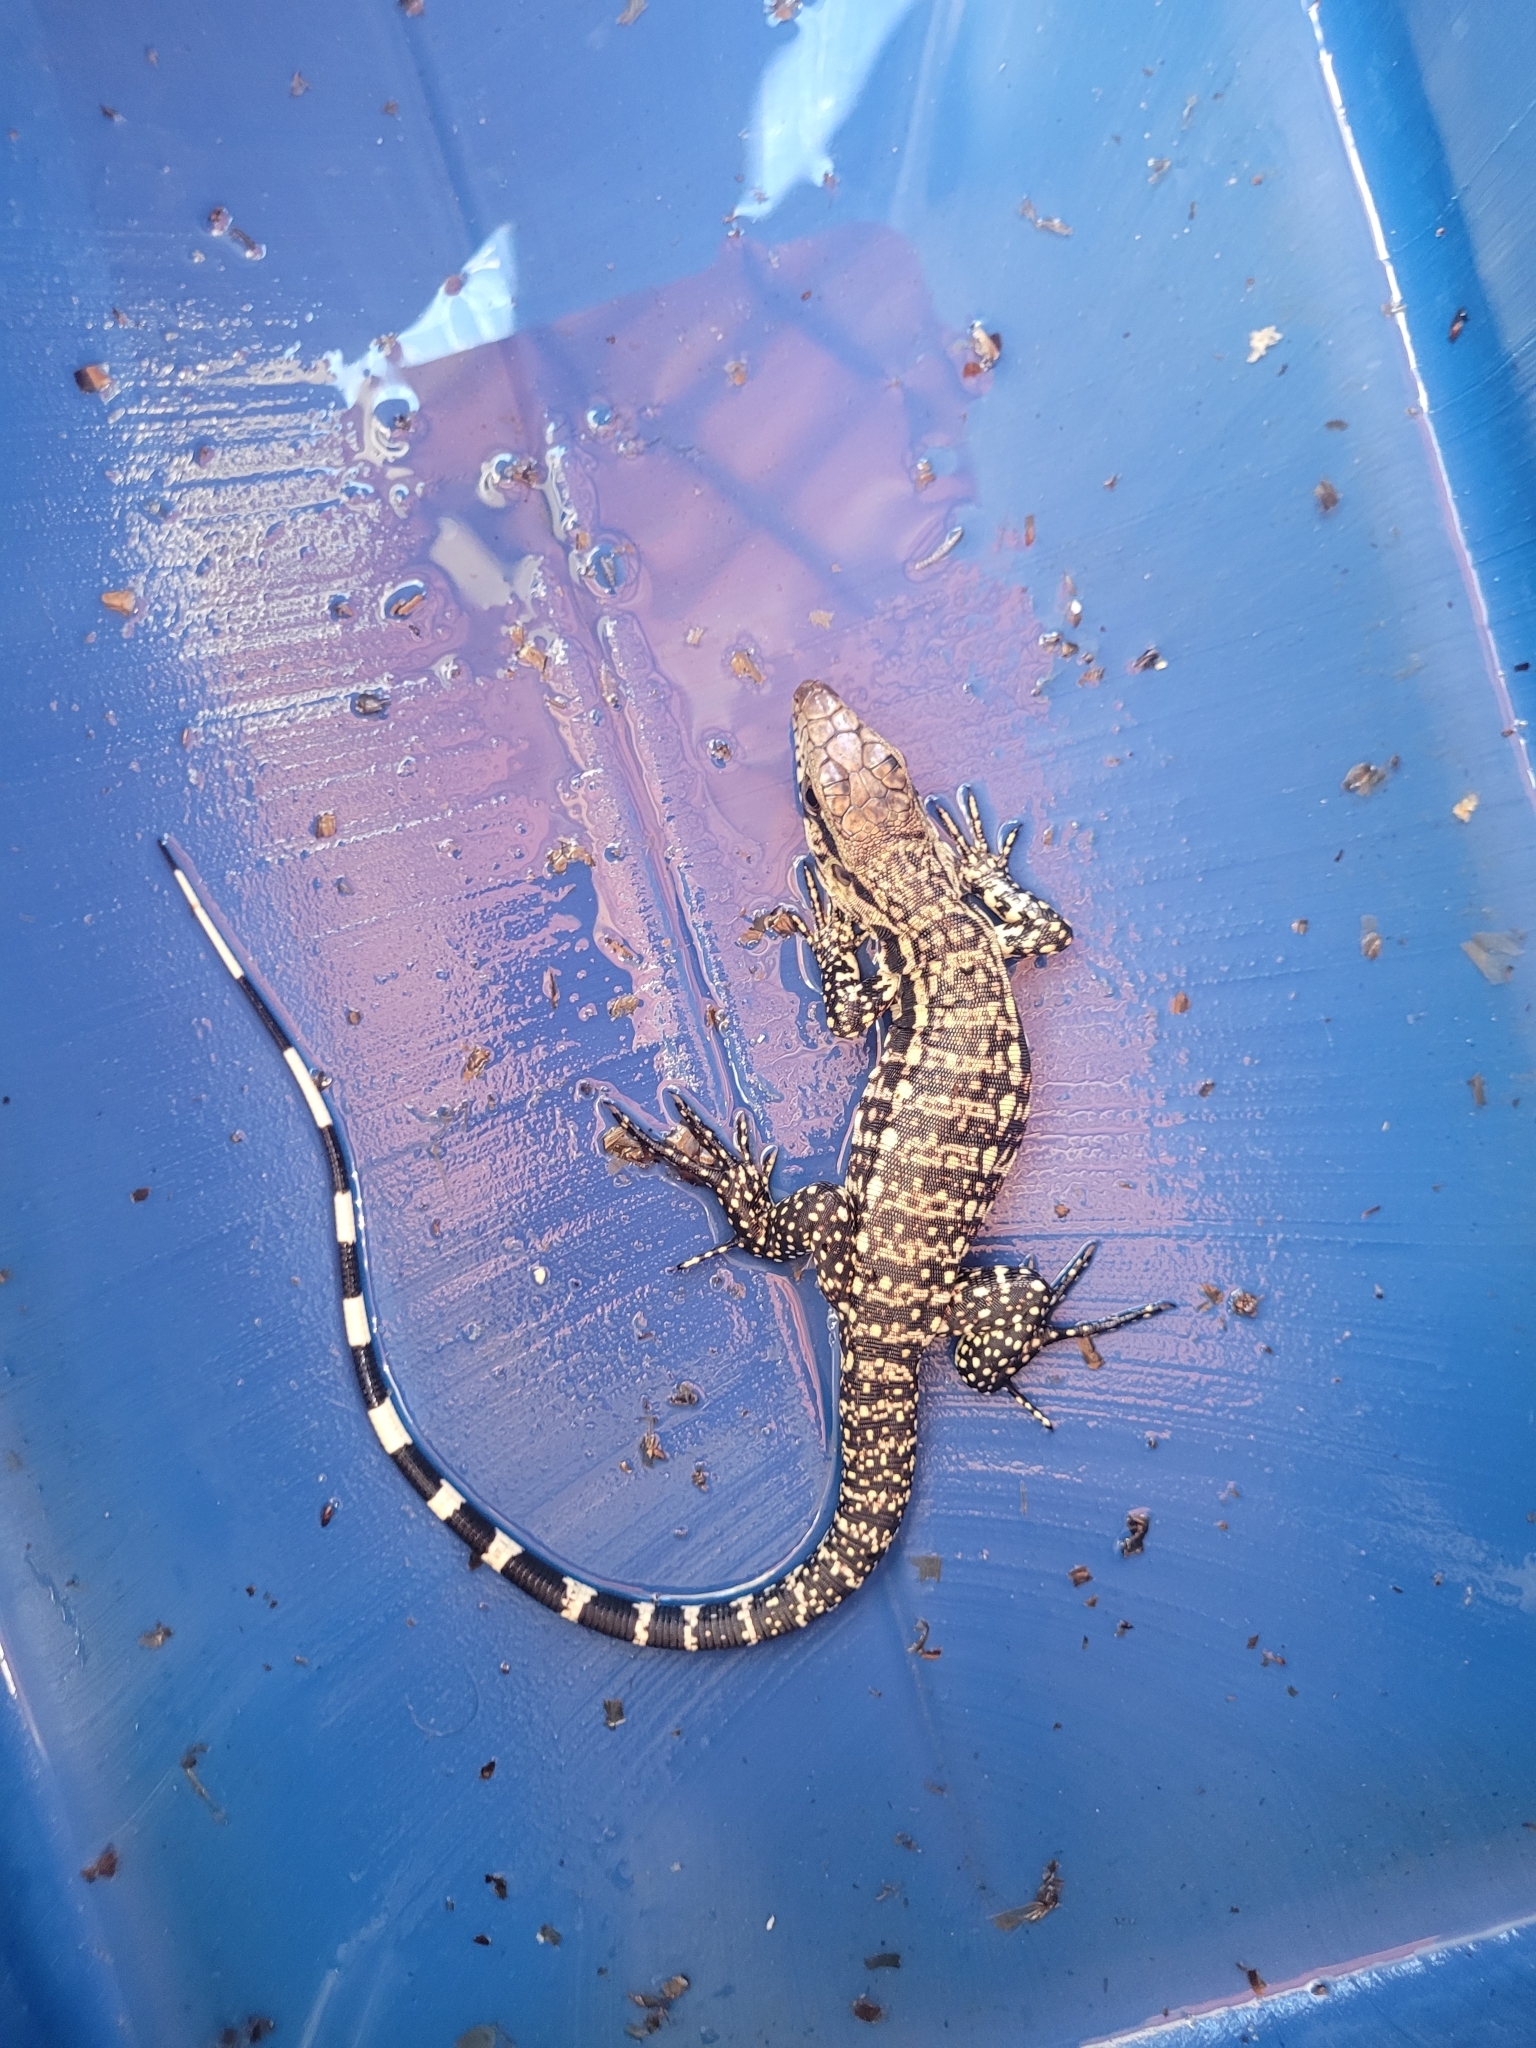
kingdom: Animalia
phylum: Chordata
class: Squamata
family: Teiidae
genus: Salvator
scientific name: Salvator merianae
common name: Argentine black and white tegu
